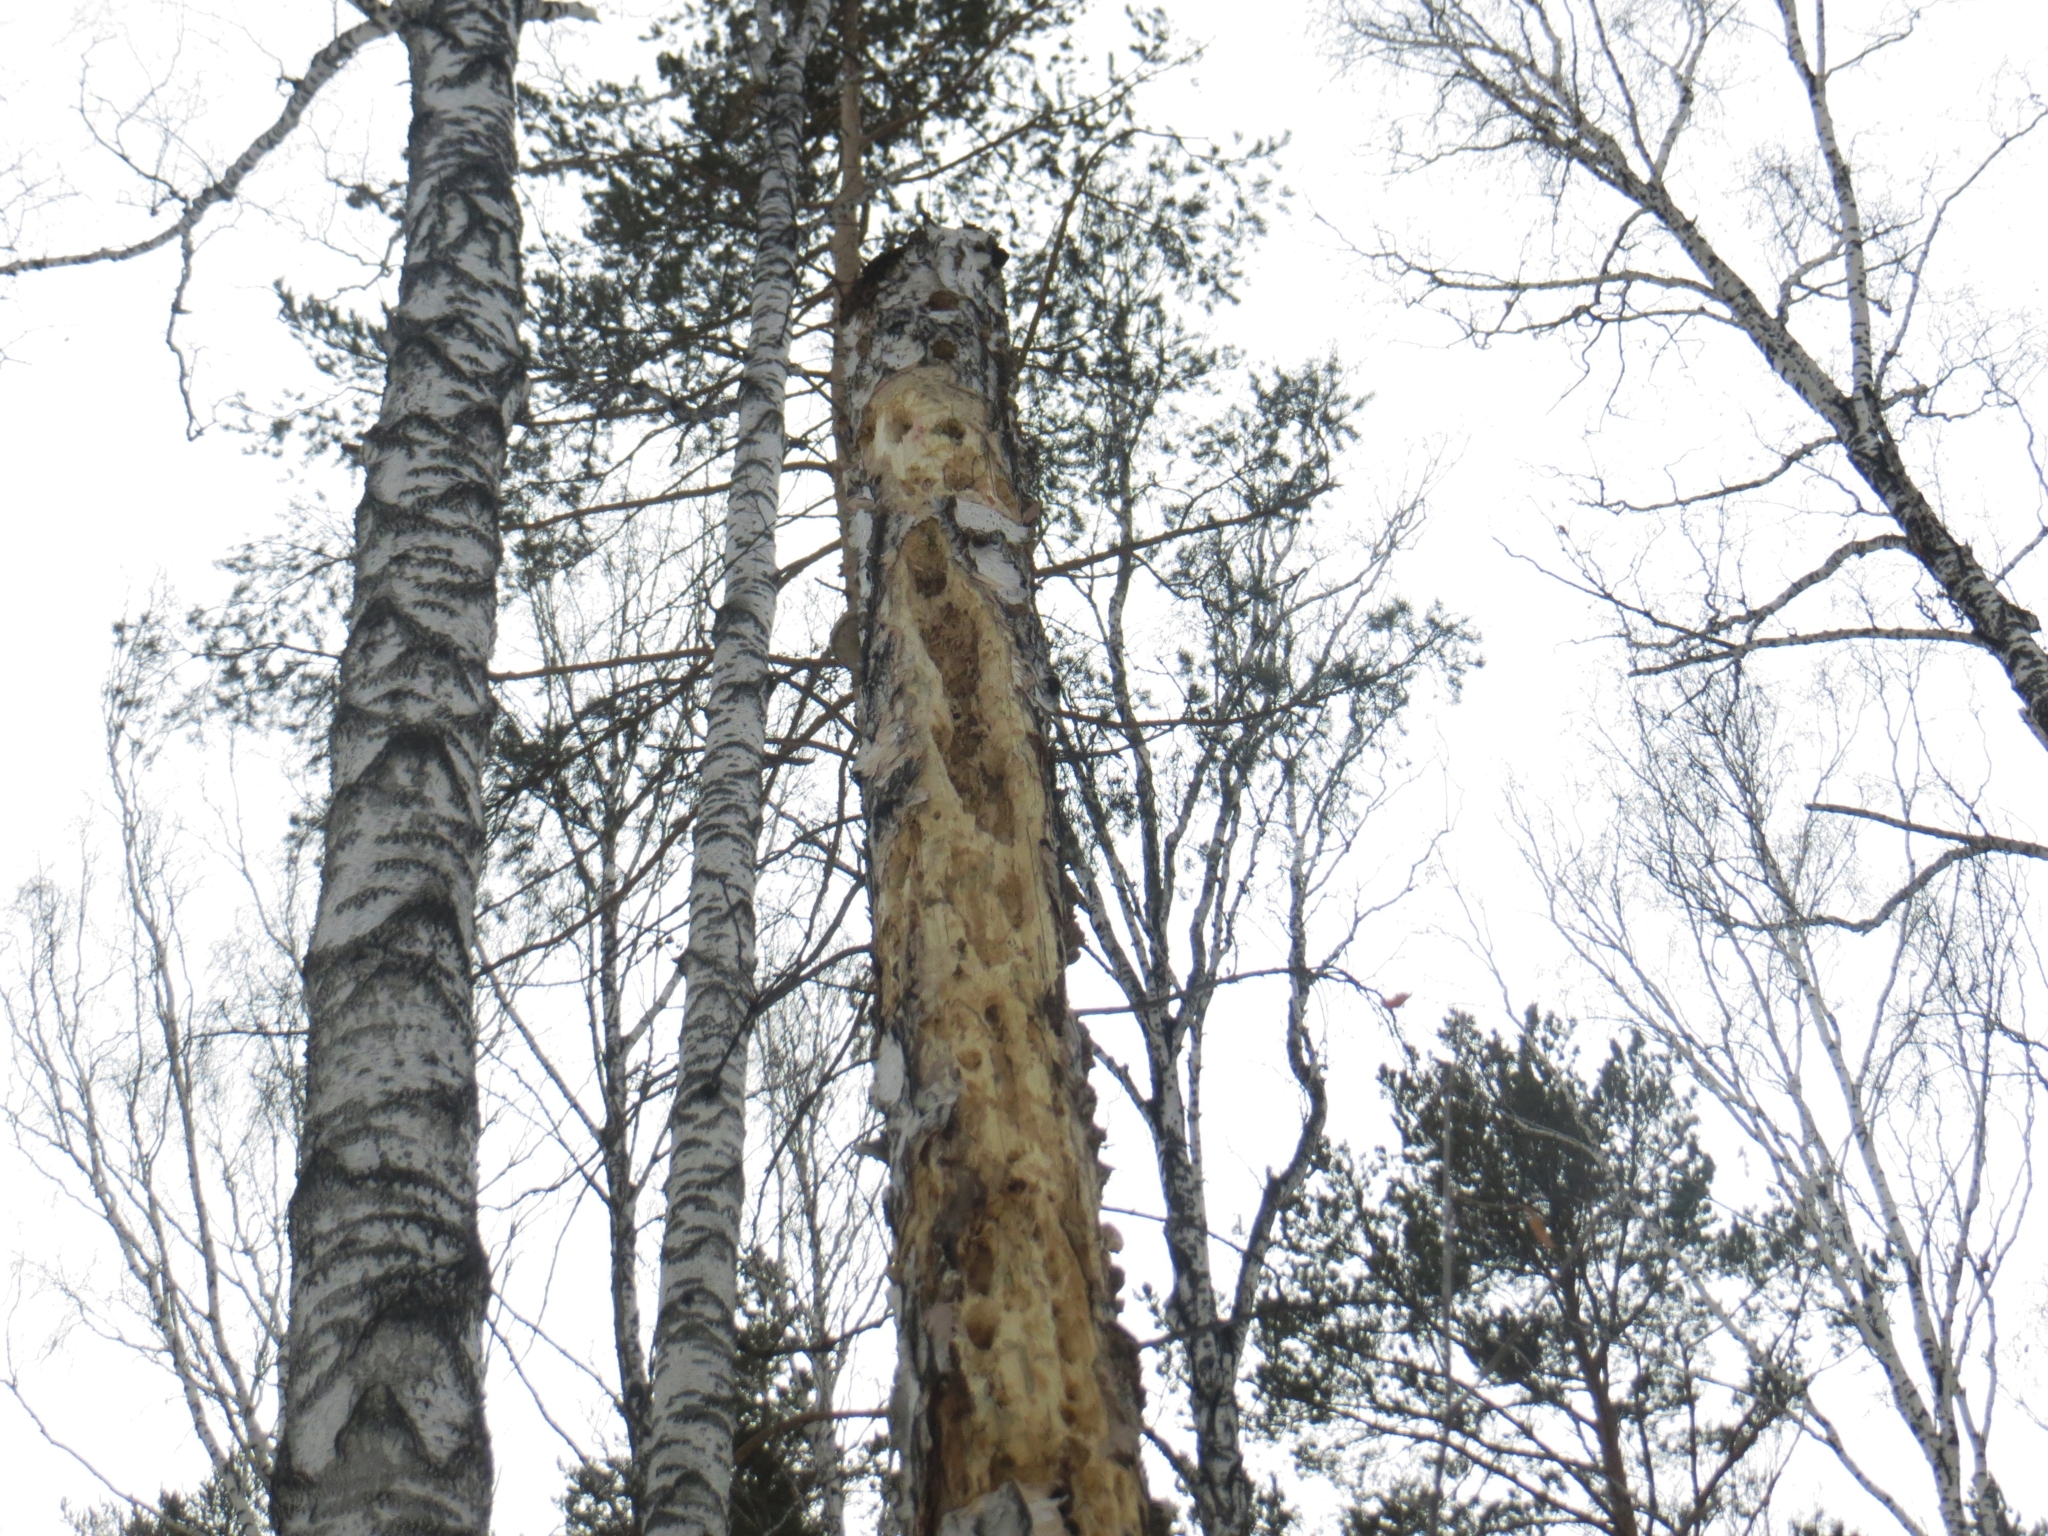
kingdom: Animalia
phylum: Chordata
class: Aves
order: Piciformes
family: Picidae
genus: Dryocopus
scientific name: Dryocopus martius
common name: Black woodpecker
